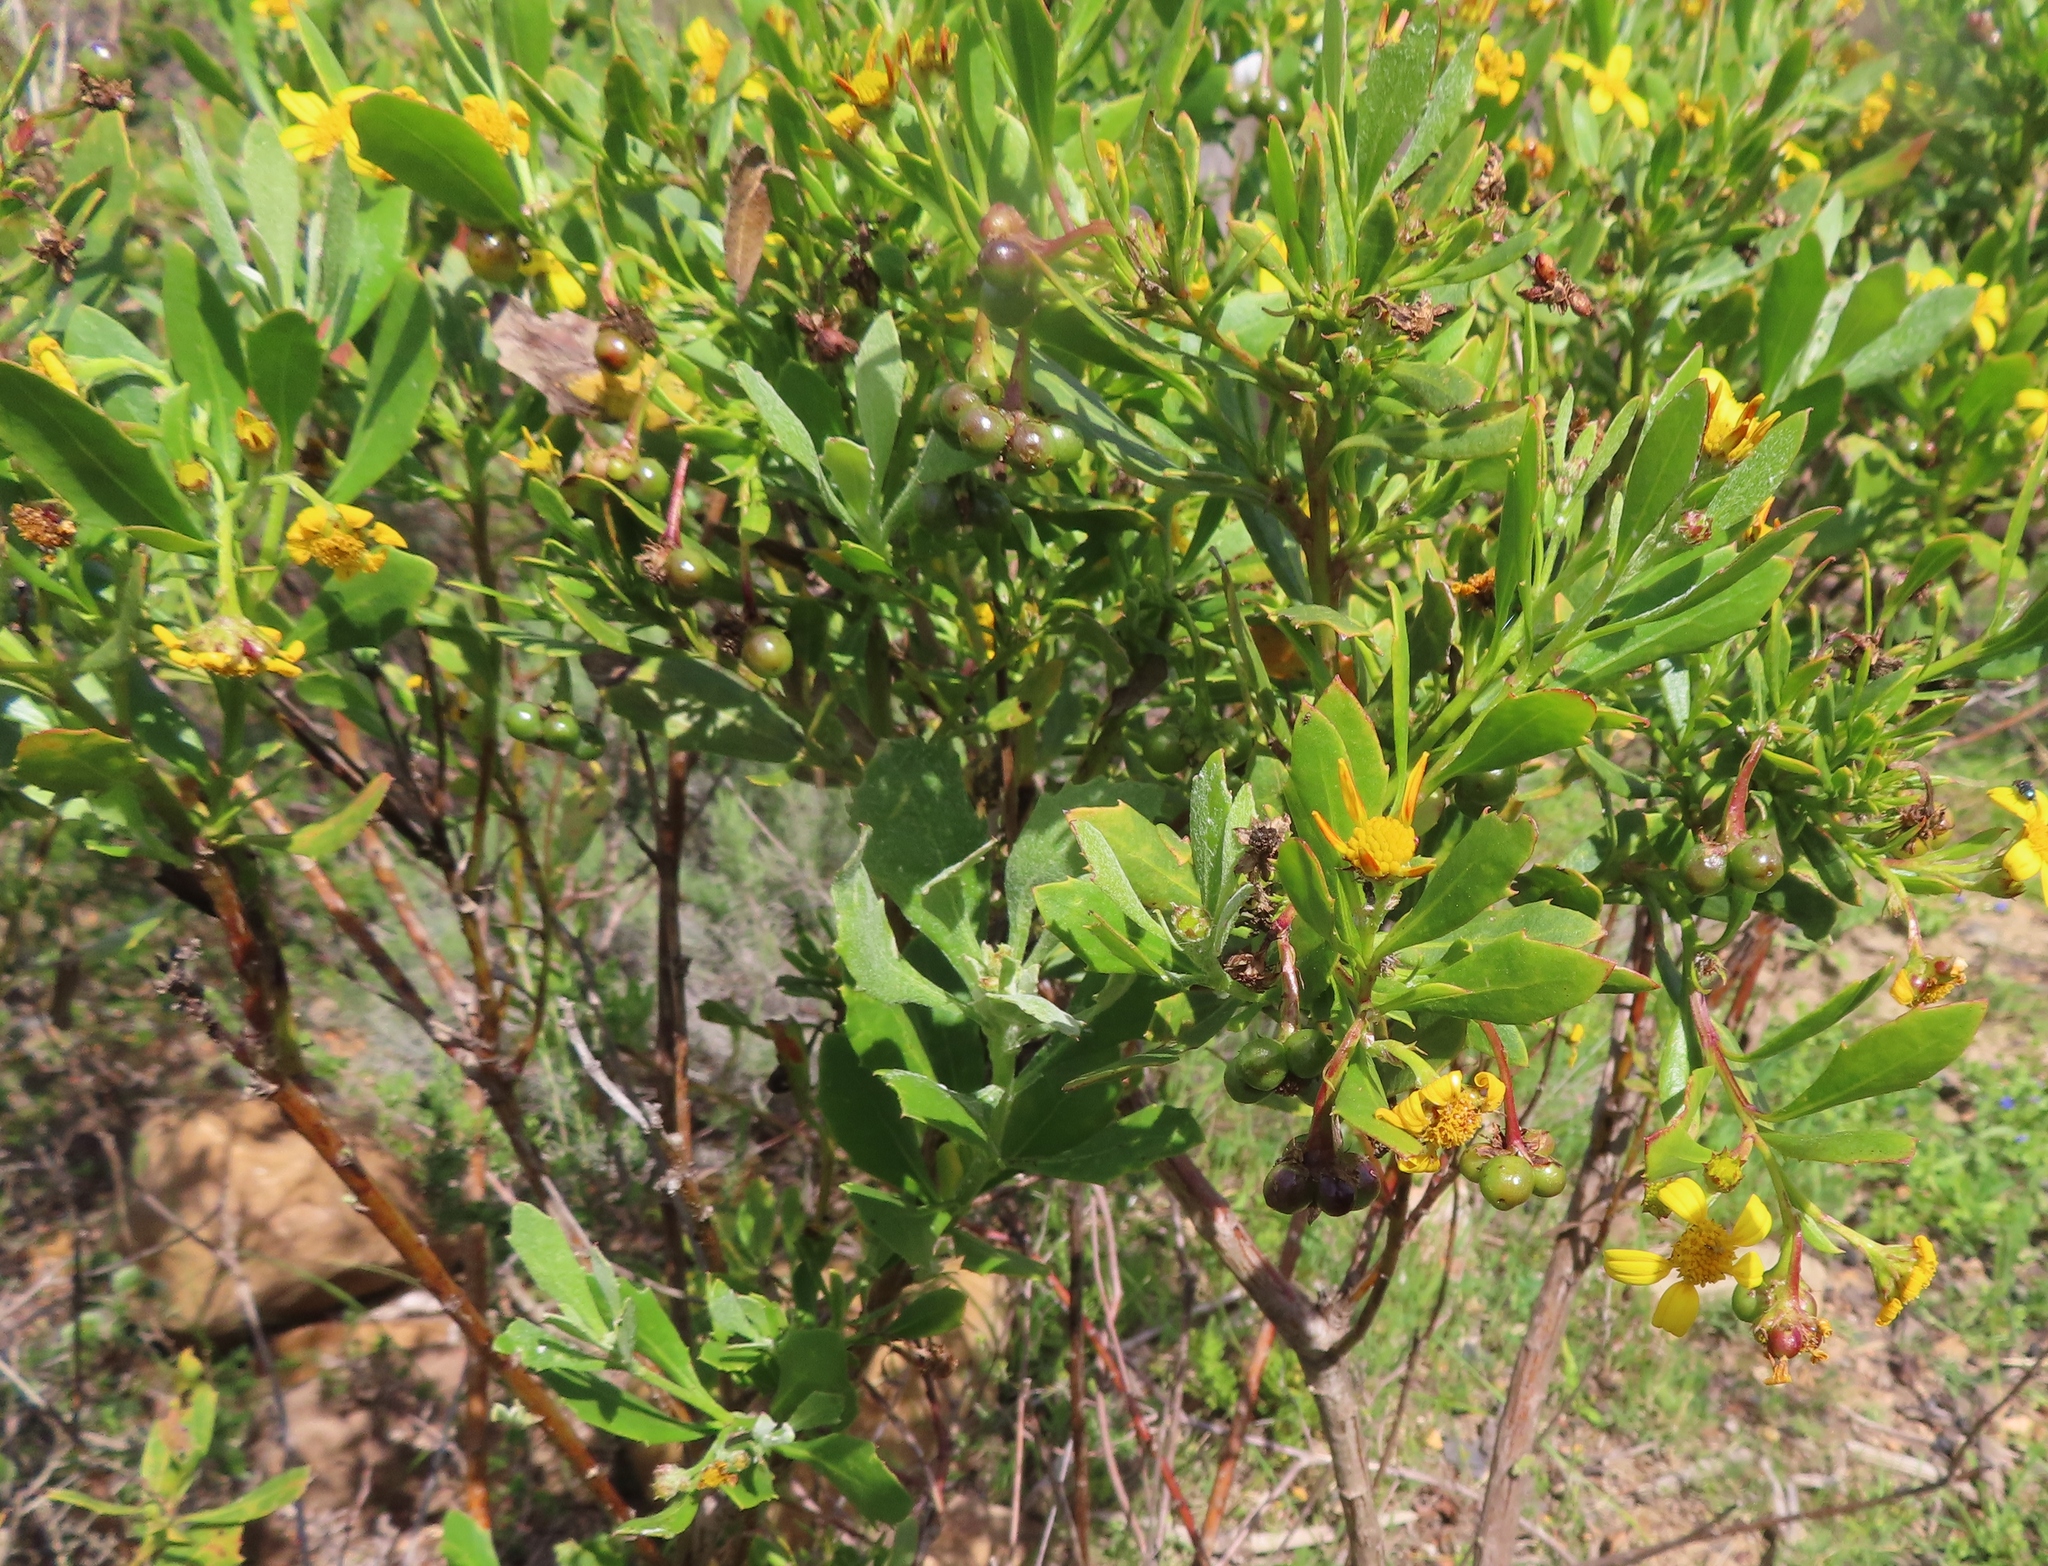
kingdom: Plantae
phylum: Tracheophyta
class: Magnoliopsida
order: Asterales
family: Asteraceae
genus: Osteospermum
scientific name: Osteospermum moniliferum
